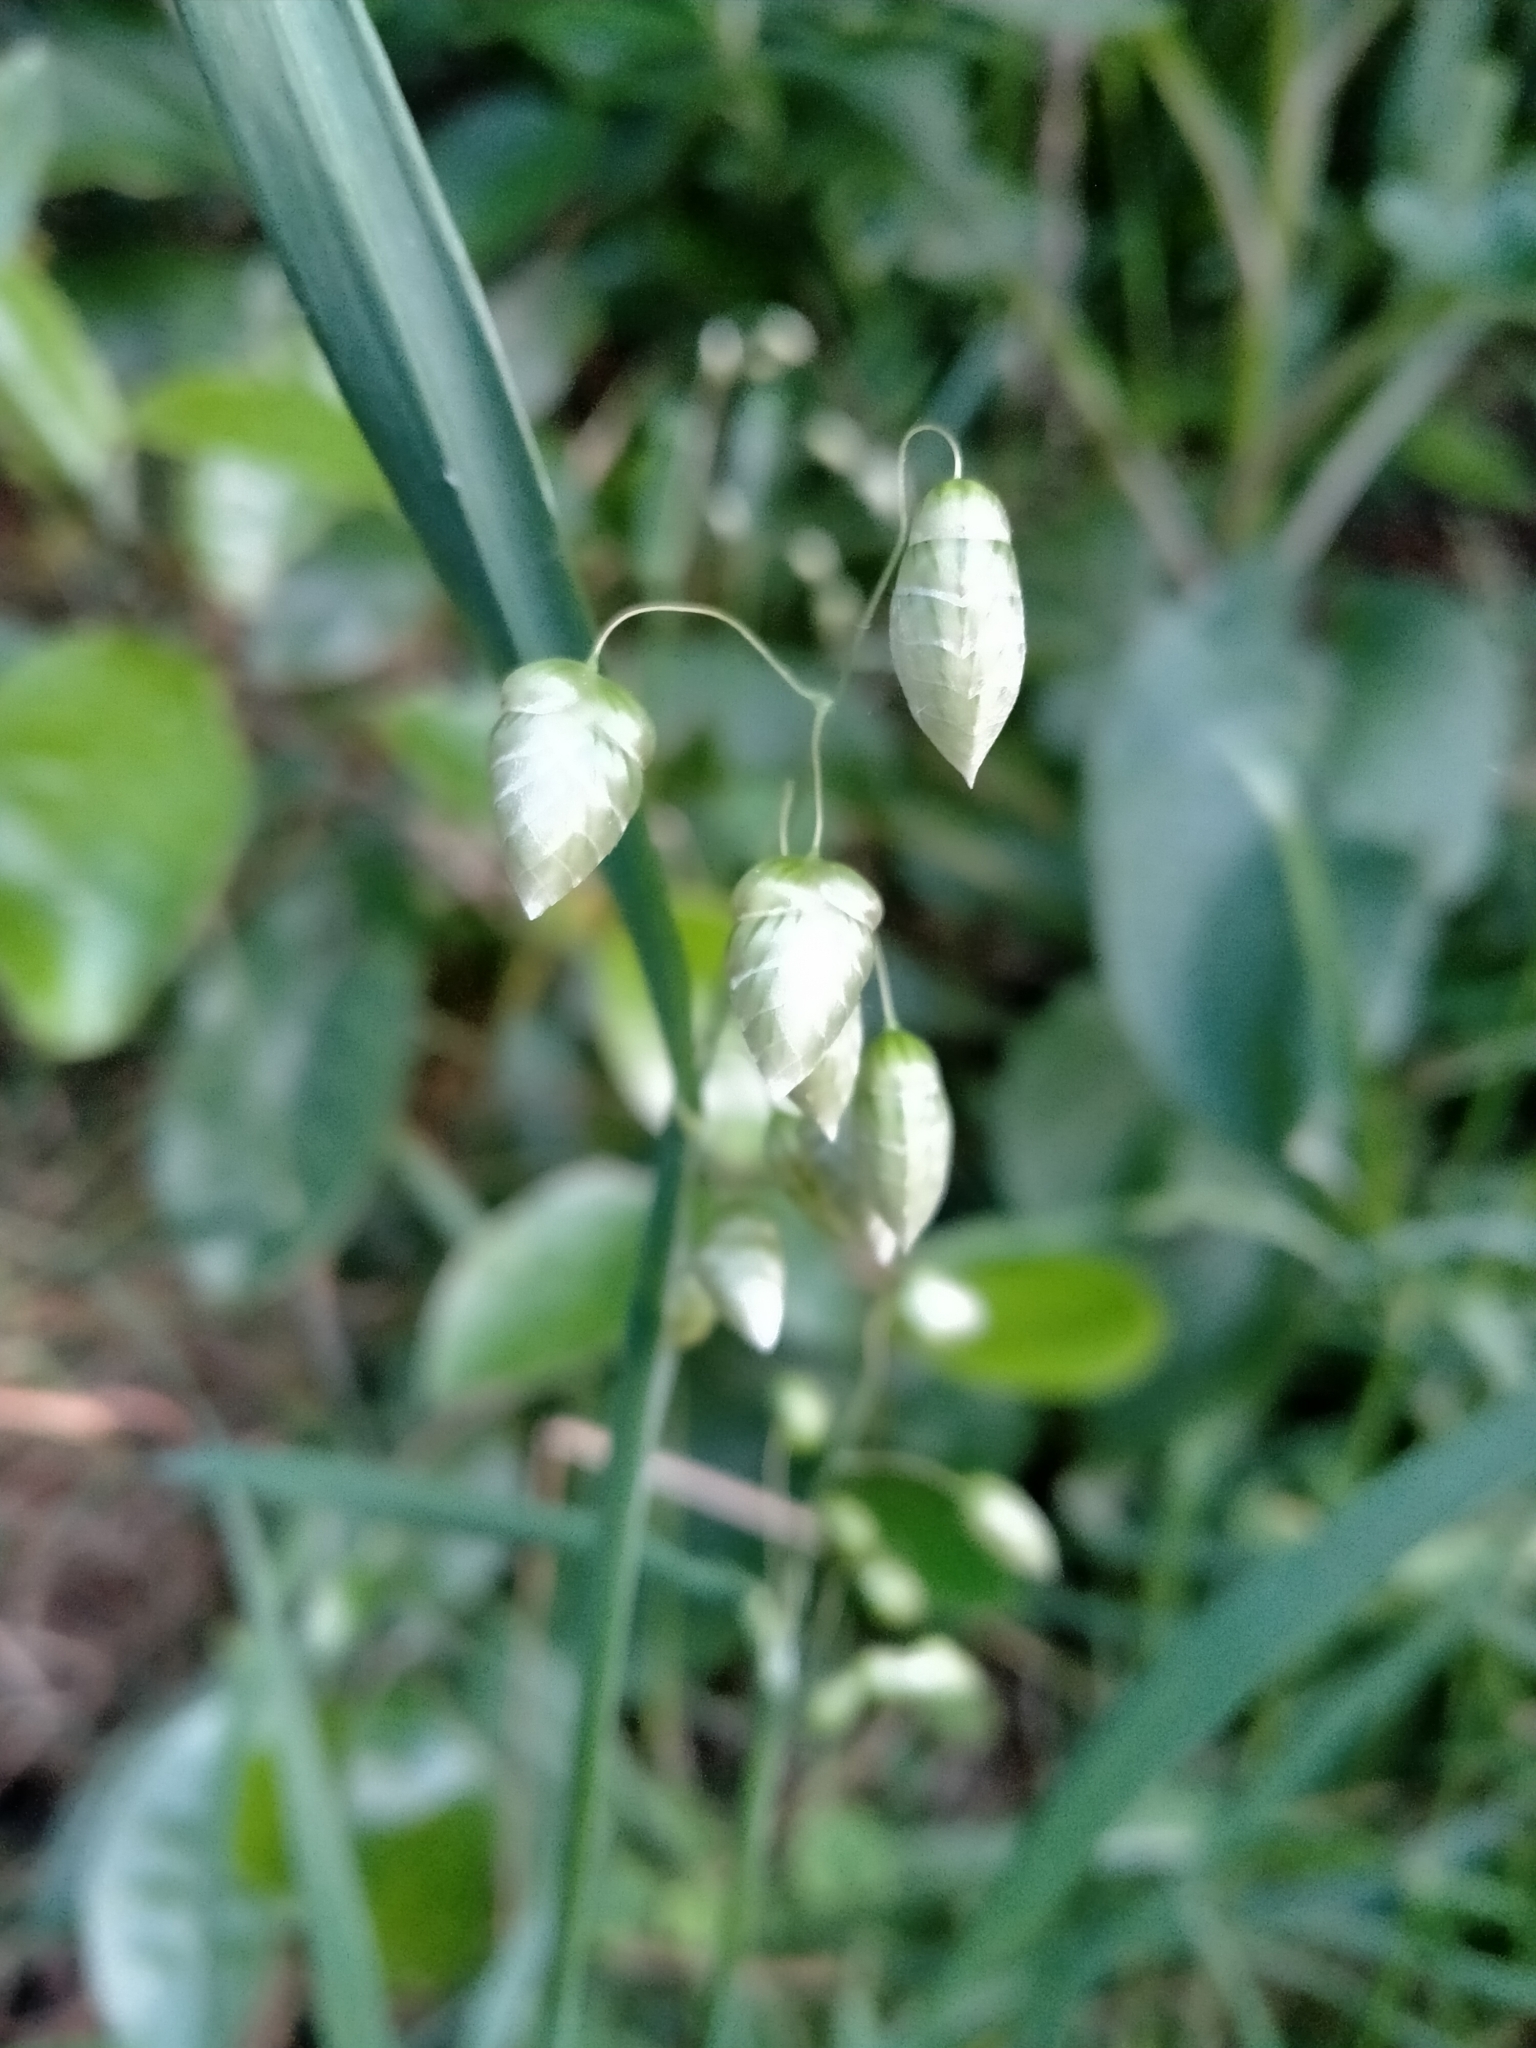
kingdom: Plantae
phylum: Tracheophyta
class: Liliopsida
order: Poales
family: Poaceae
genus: Briza
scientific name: Briza maxima
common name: Big quakinggrass
